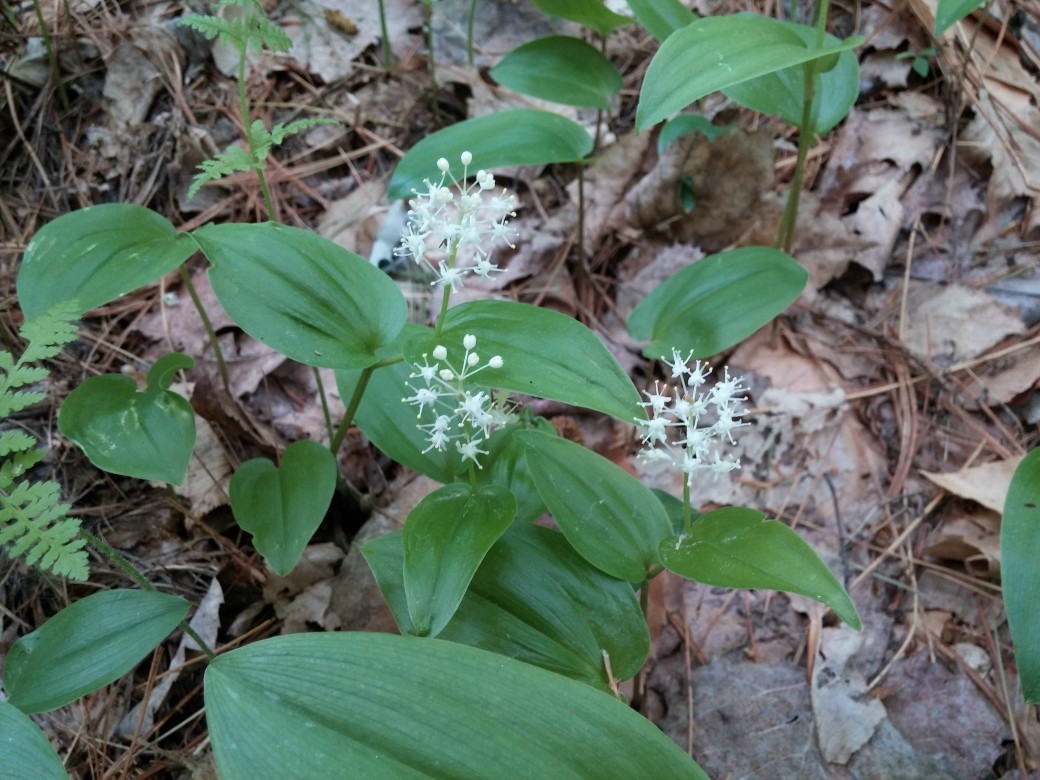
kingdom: Plantae
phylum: Tracheophyta
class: Liliopsida
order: Asparagales
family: Asparagaceae
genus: Maianthemum
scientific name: Maianthemum canadense
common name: False lily-of-the-valley
